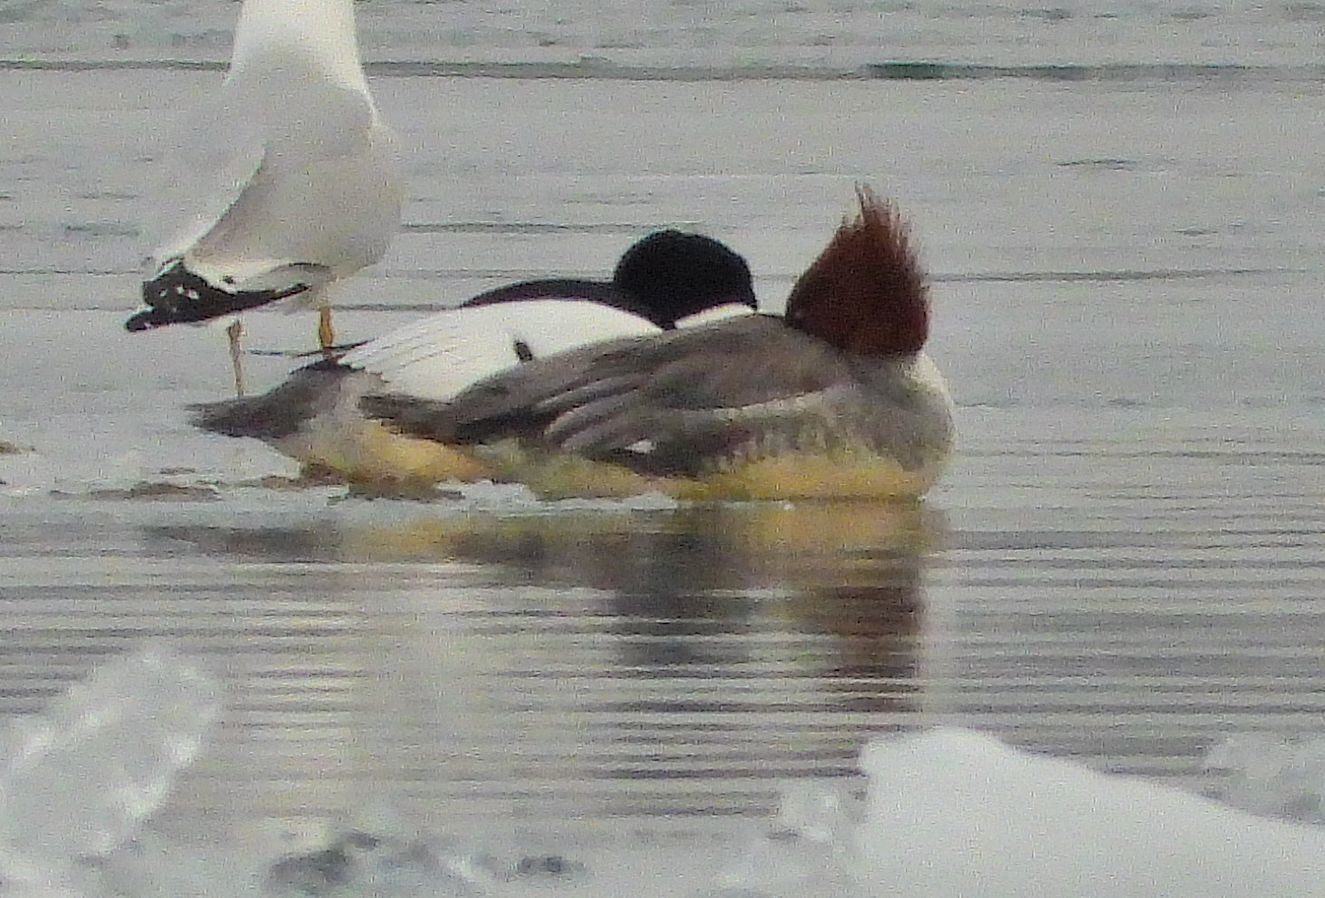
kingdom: Animalia
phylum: Chordata
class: Aves
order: Anseriformes
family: Anatidae
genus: Mergus
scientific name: Mergus merganser
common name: Common merganser
